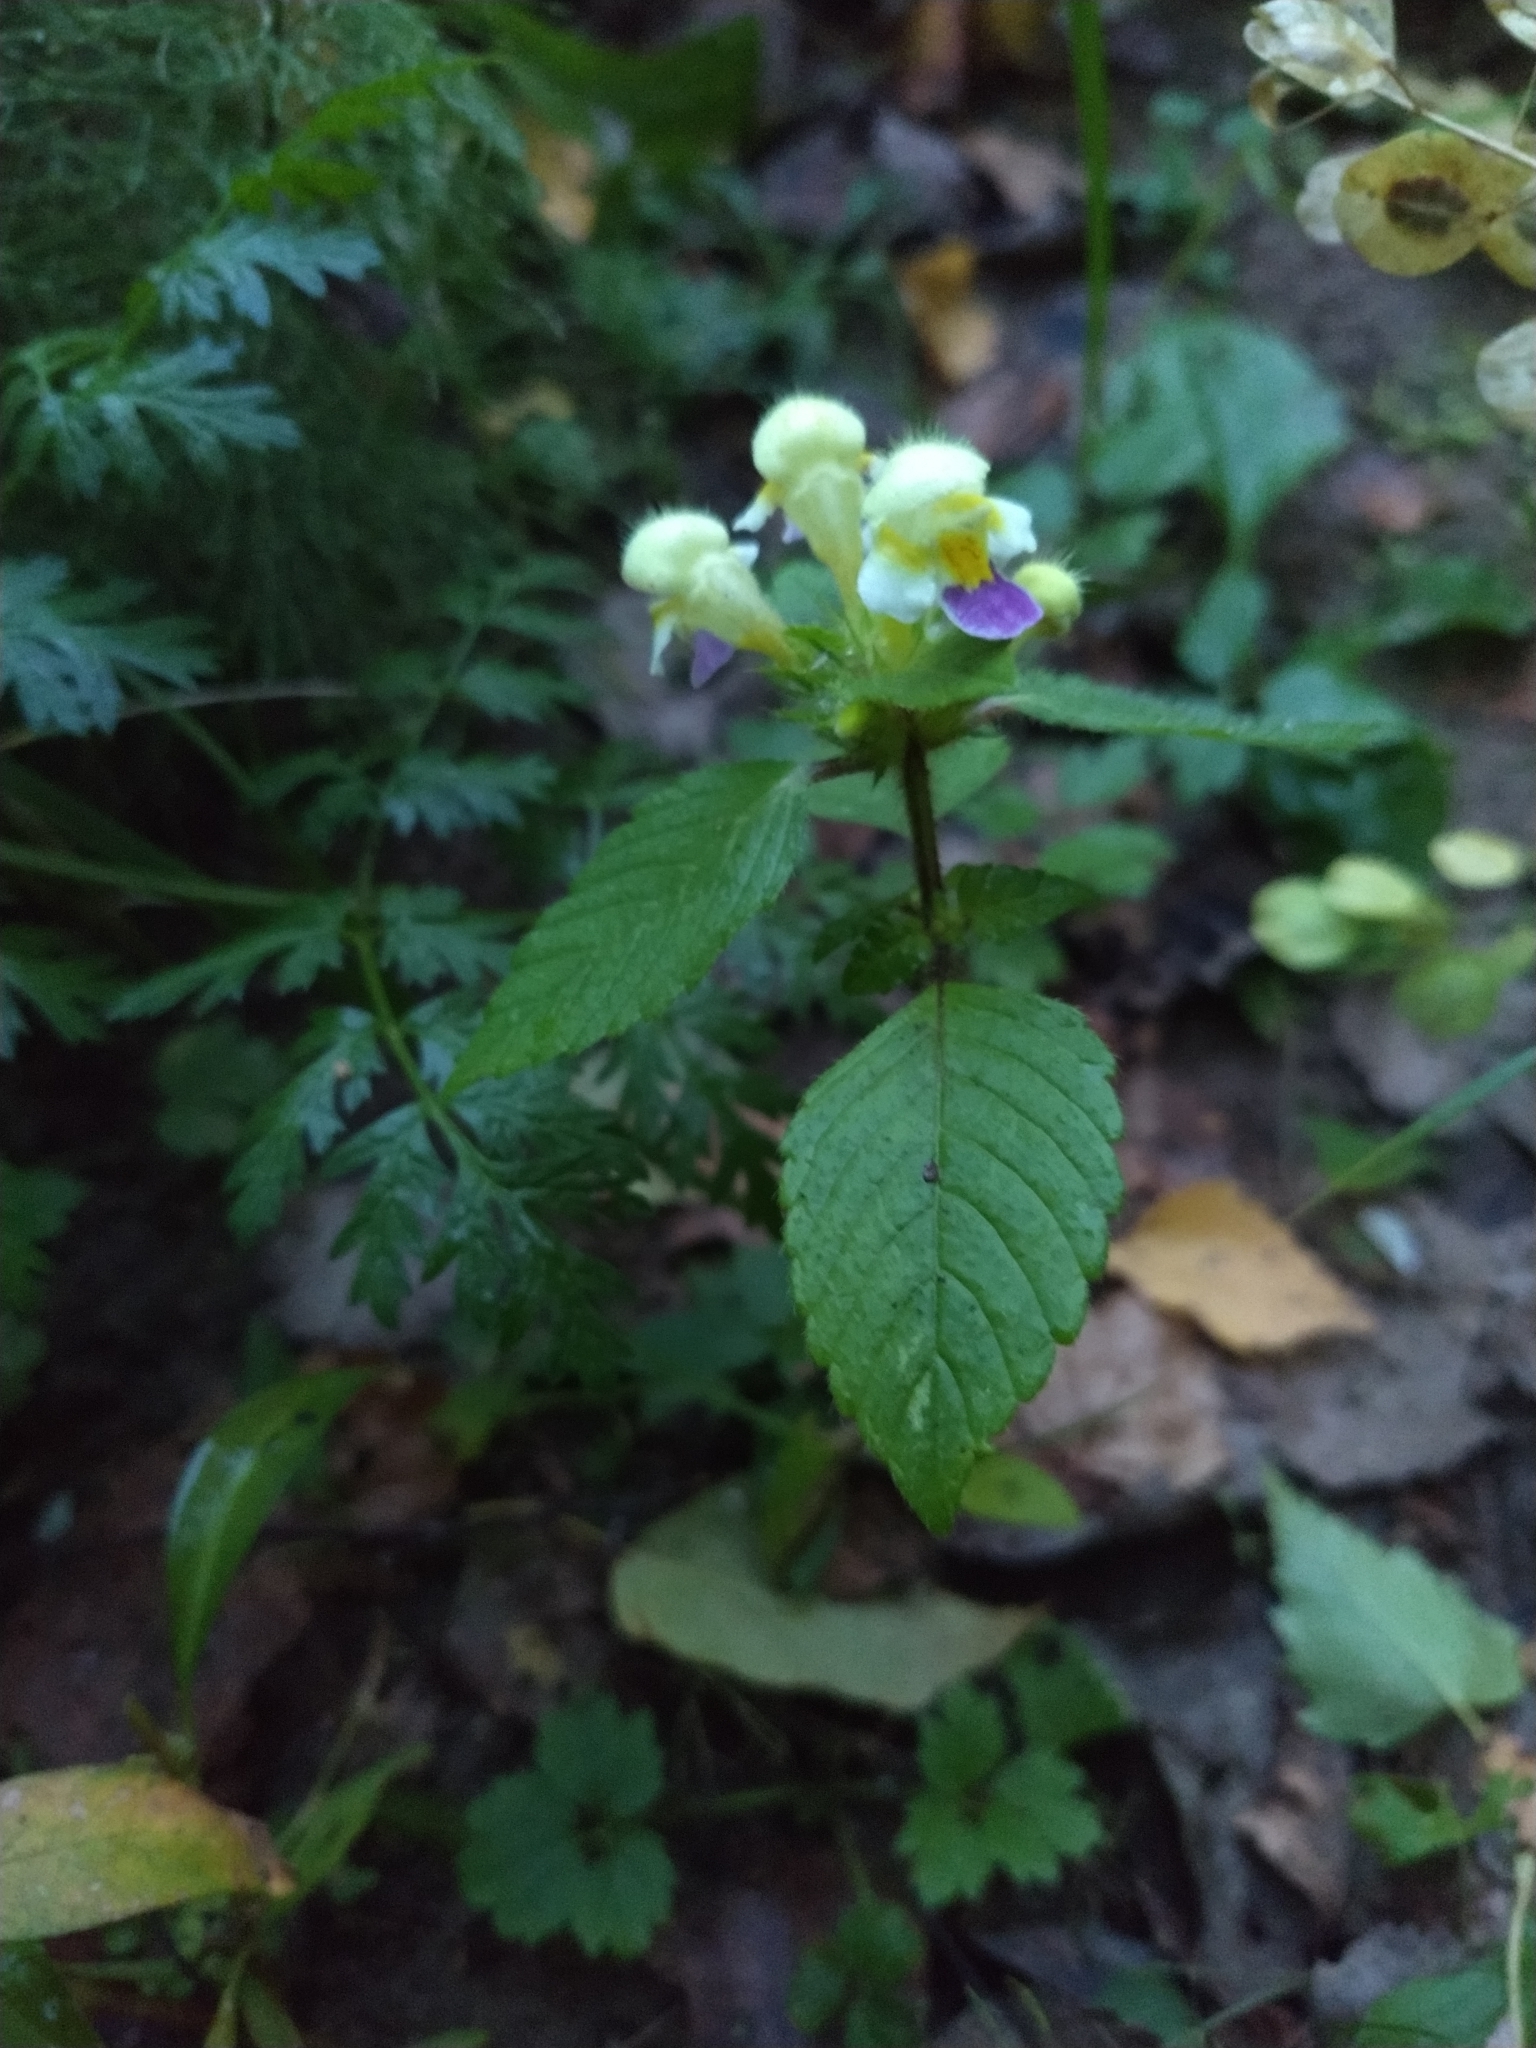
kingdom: Plantae
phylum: Tracheophyta
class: Magnoliopsida
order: Lamiales
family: Lamiaceae
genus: Galeopsis
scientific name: Galeopsis speciosa
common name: Large-flowered hemp-nettle
